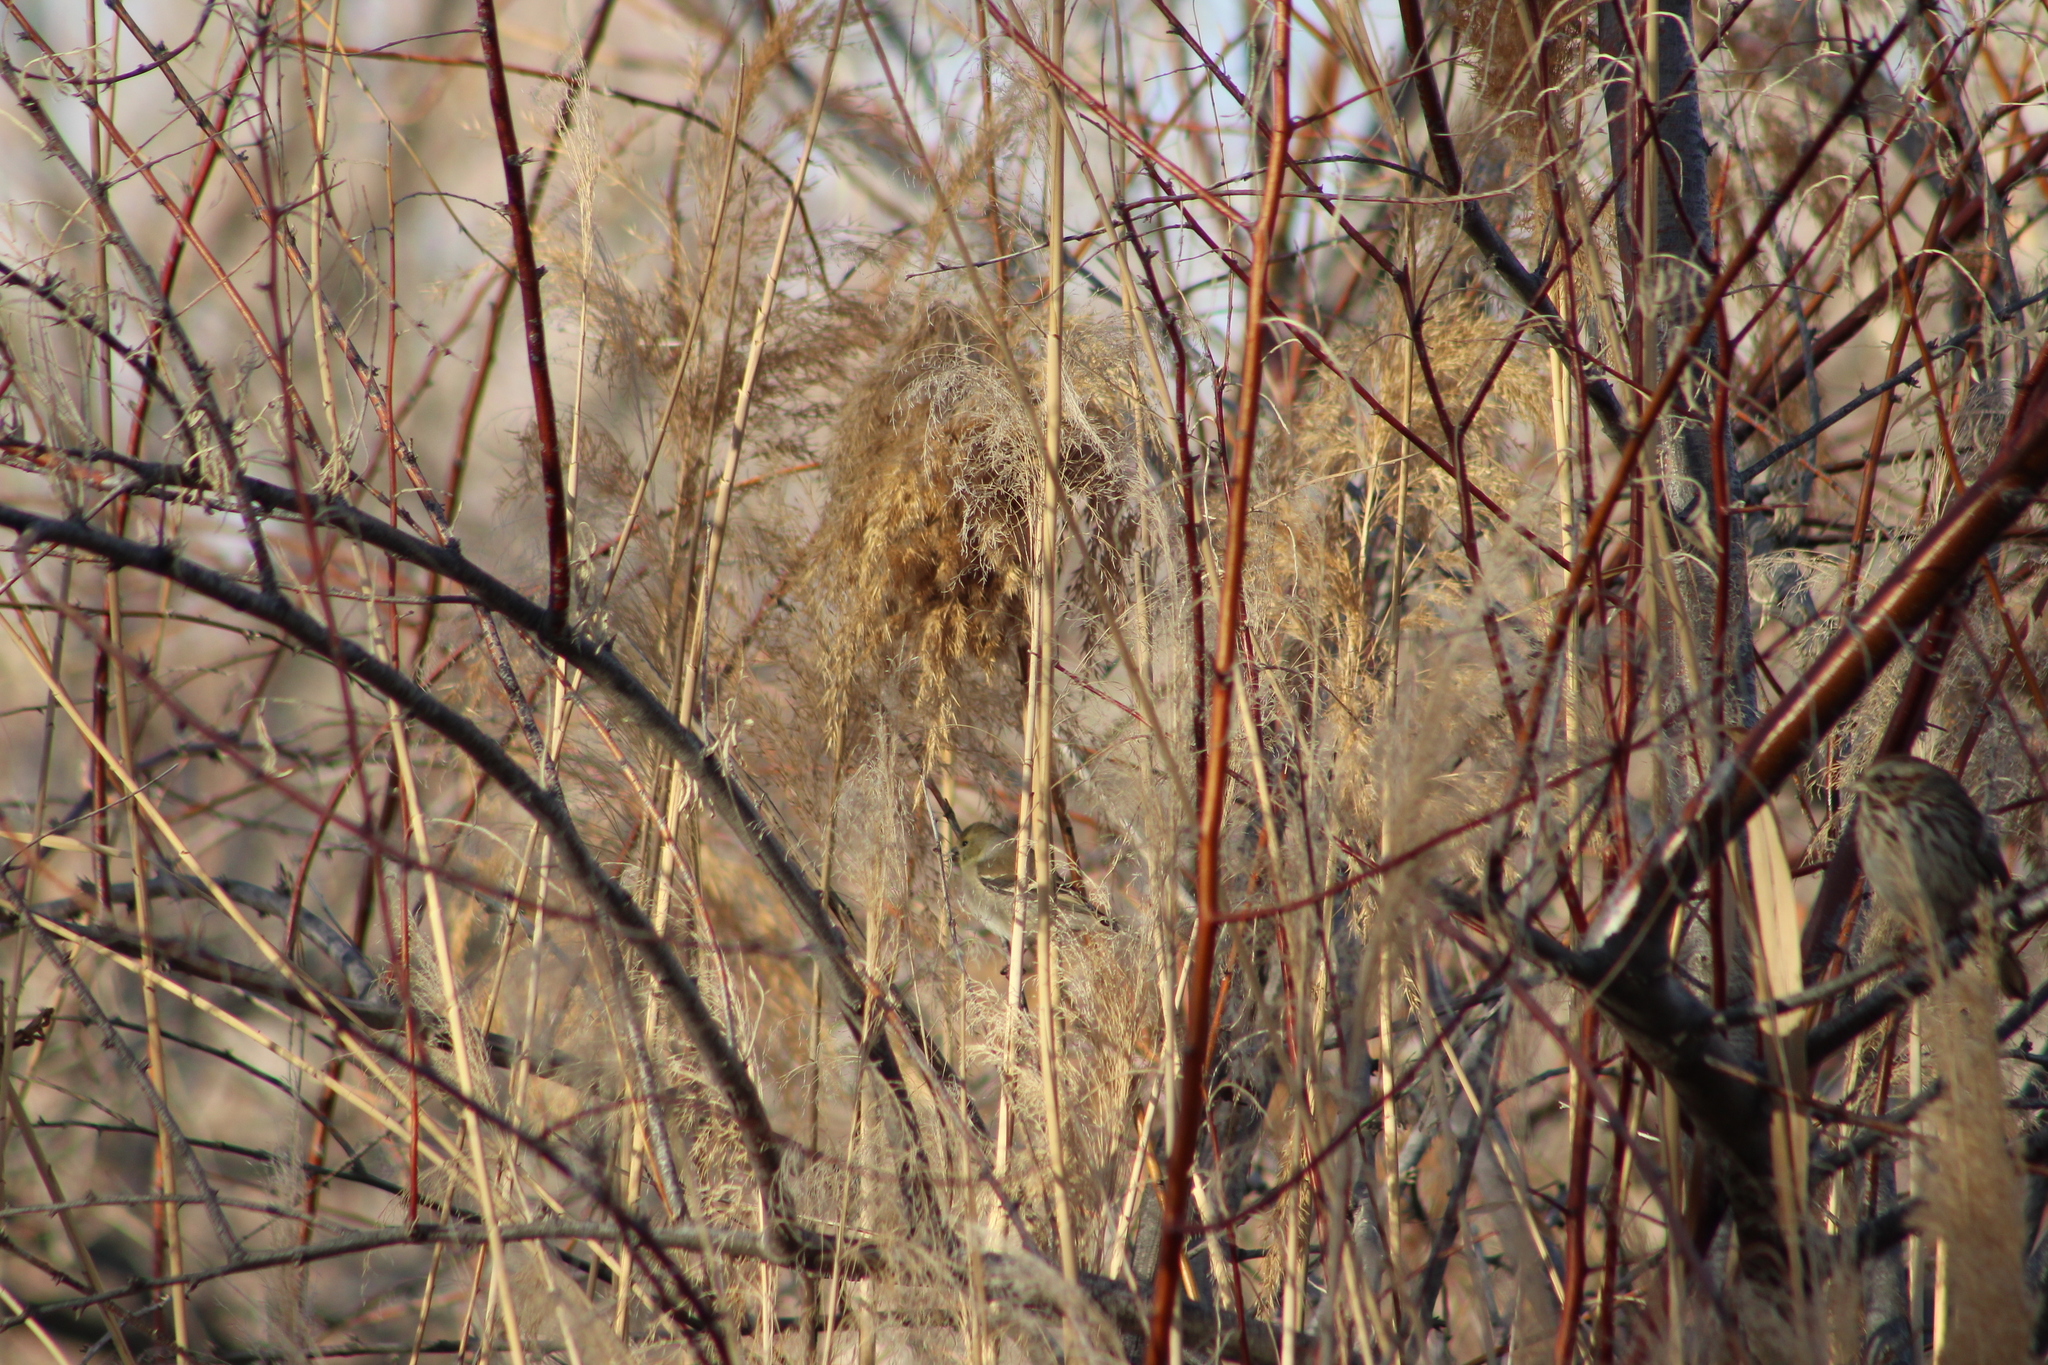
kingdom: Animalia
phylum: Chordata
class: Aves
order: Passeriformes
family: Fringillidae
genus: Spinus
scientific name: Spinus tristis
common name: American goldfinch
